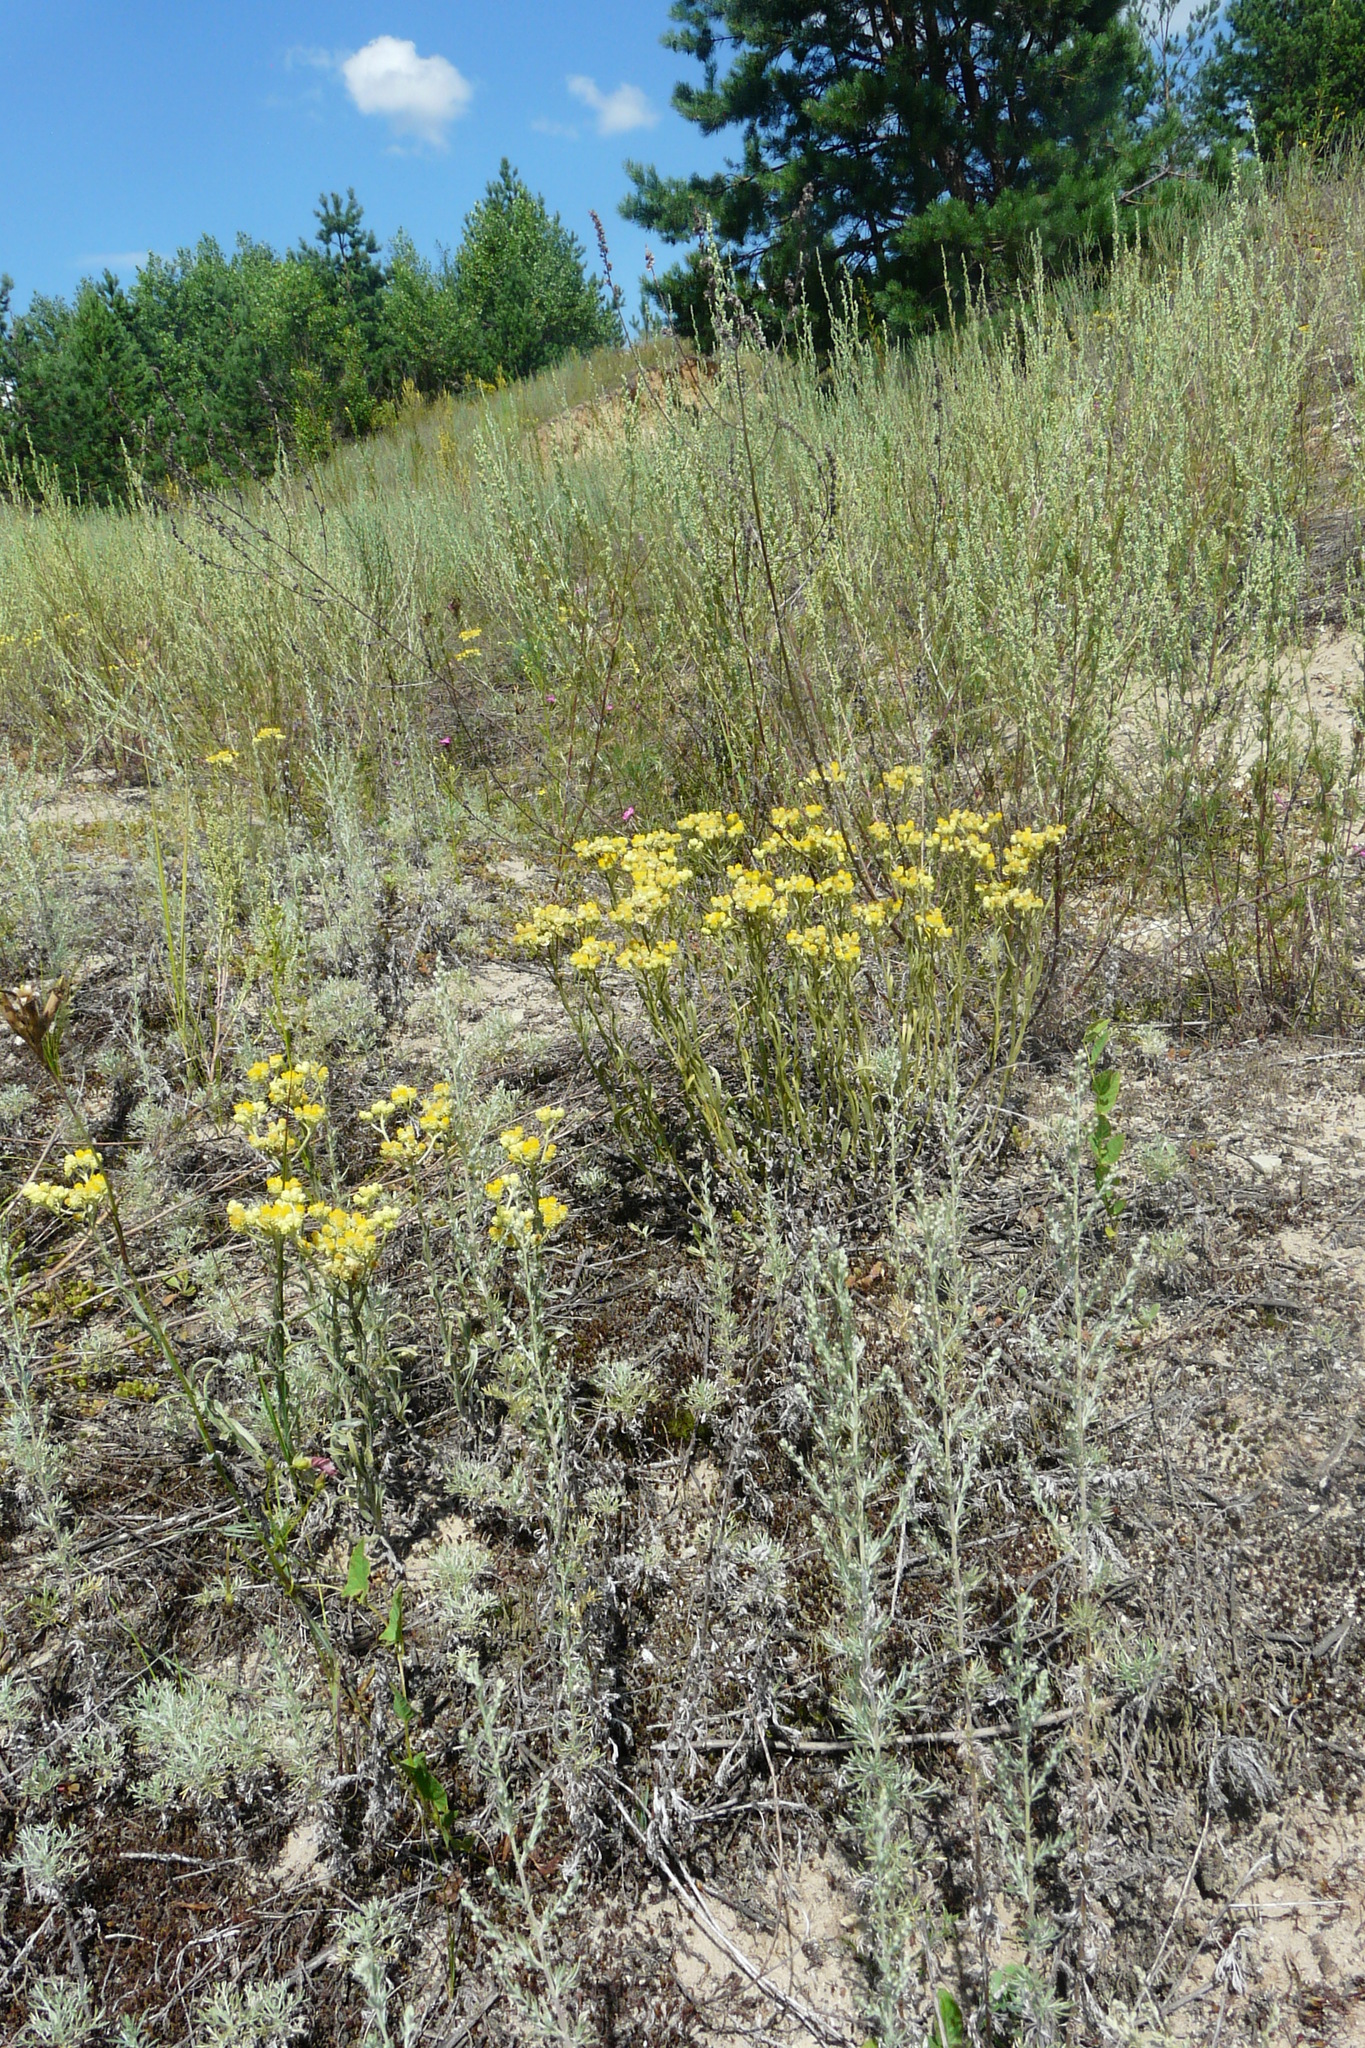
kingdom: Plantae
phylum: Tracheophyta
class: Magnoliopsida
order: Asterales
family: Asteraceae
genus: Helichrysum
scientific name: Helichrysum arenarium
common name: Strawflower
